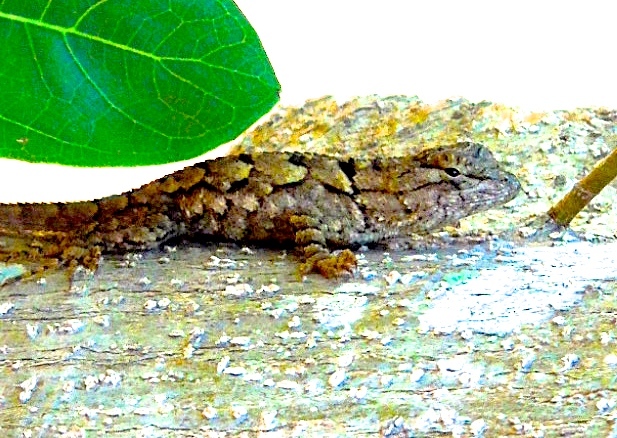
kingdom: Animalia
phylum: Chordata
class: Squamata
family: Phrynosomatidae
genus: Sceloporus
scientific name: Sceloporus nelsoni
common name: Nelson's spiny lizard
